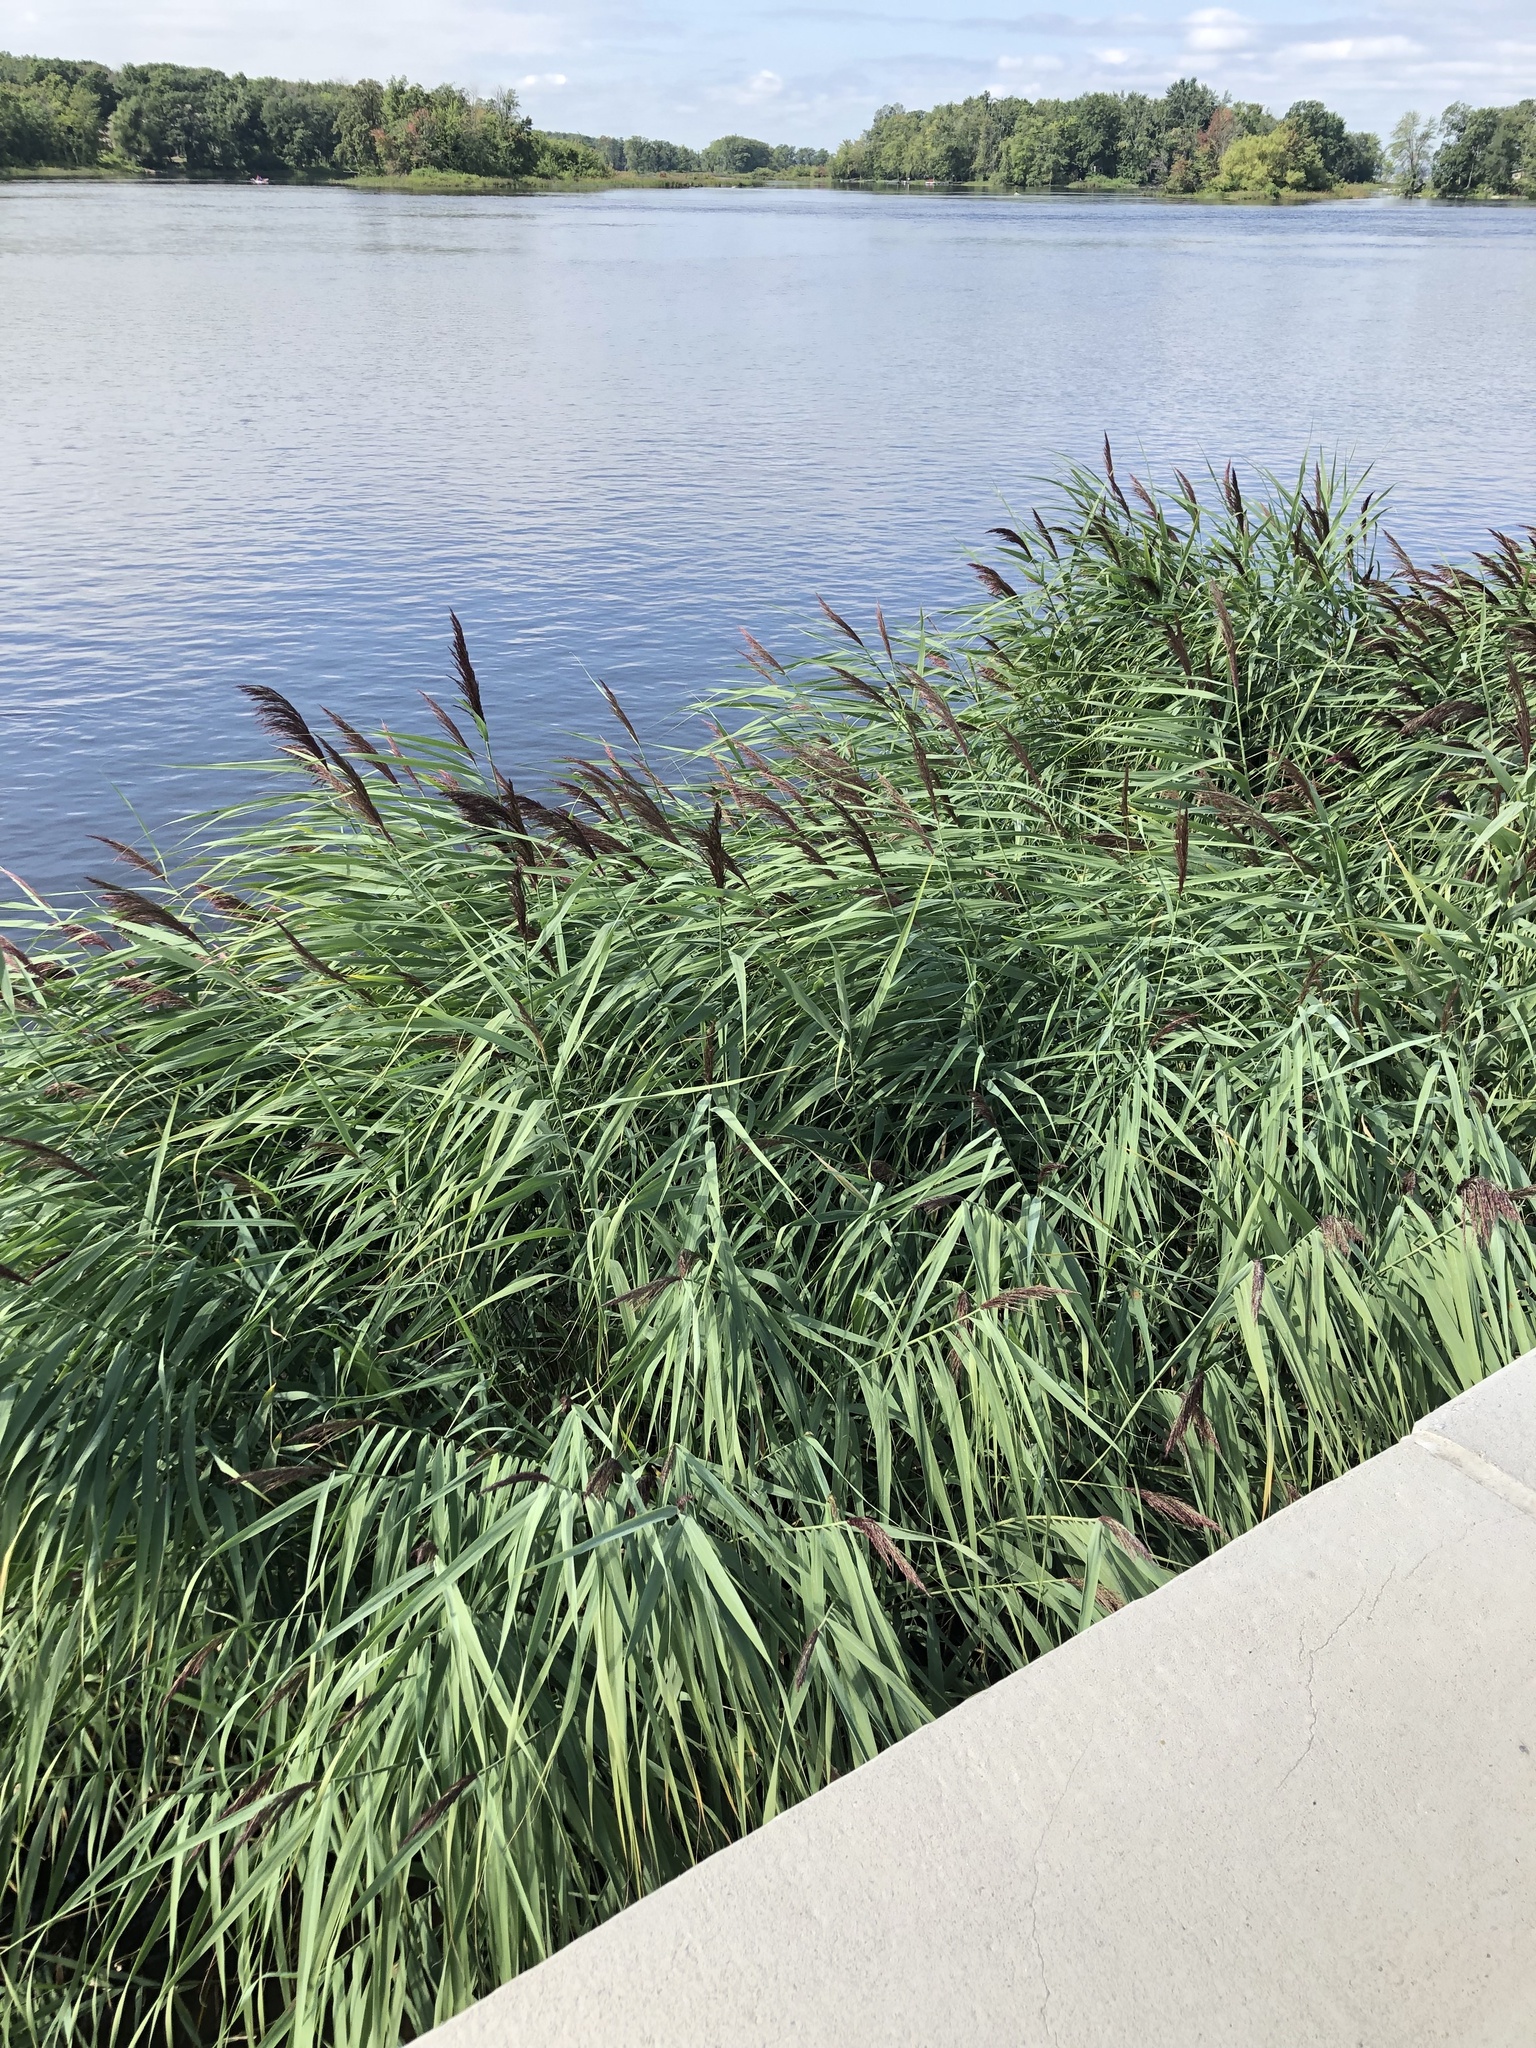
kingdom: Plantae
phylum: Tracheophyta
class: Liliopsida
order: Poales
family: Poaceae
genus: Phragmites
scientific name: Phragmites australis
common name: Common reed
